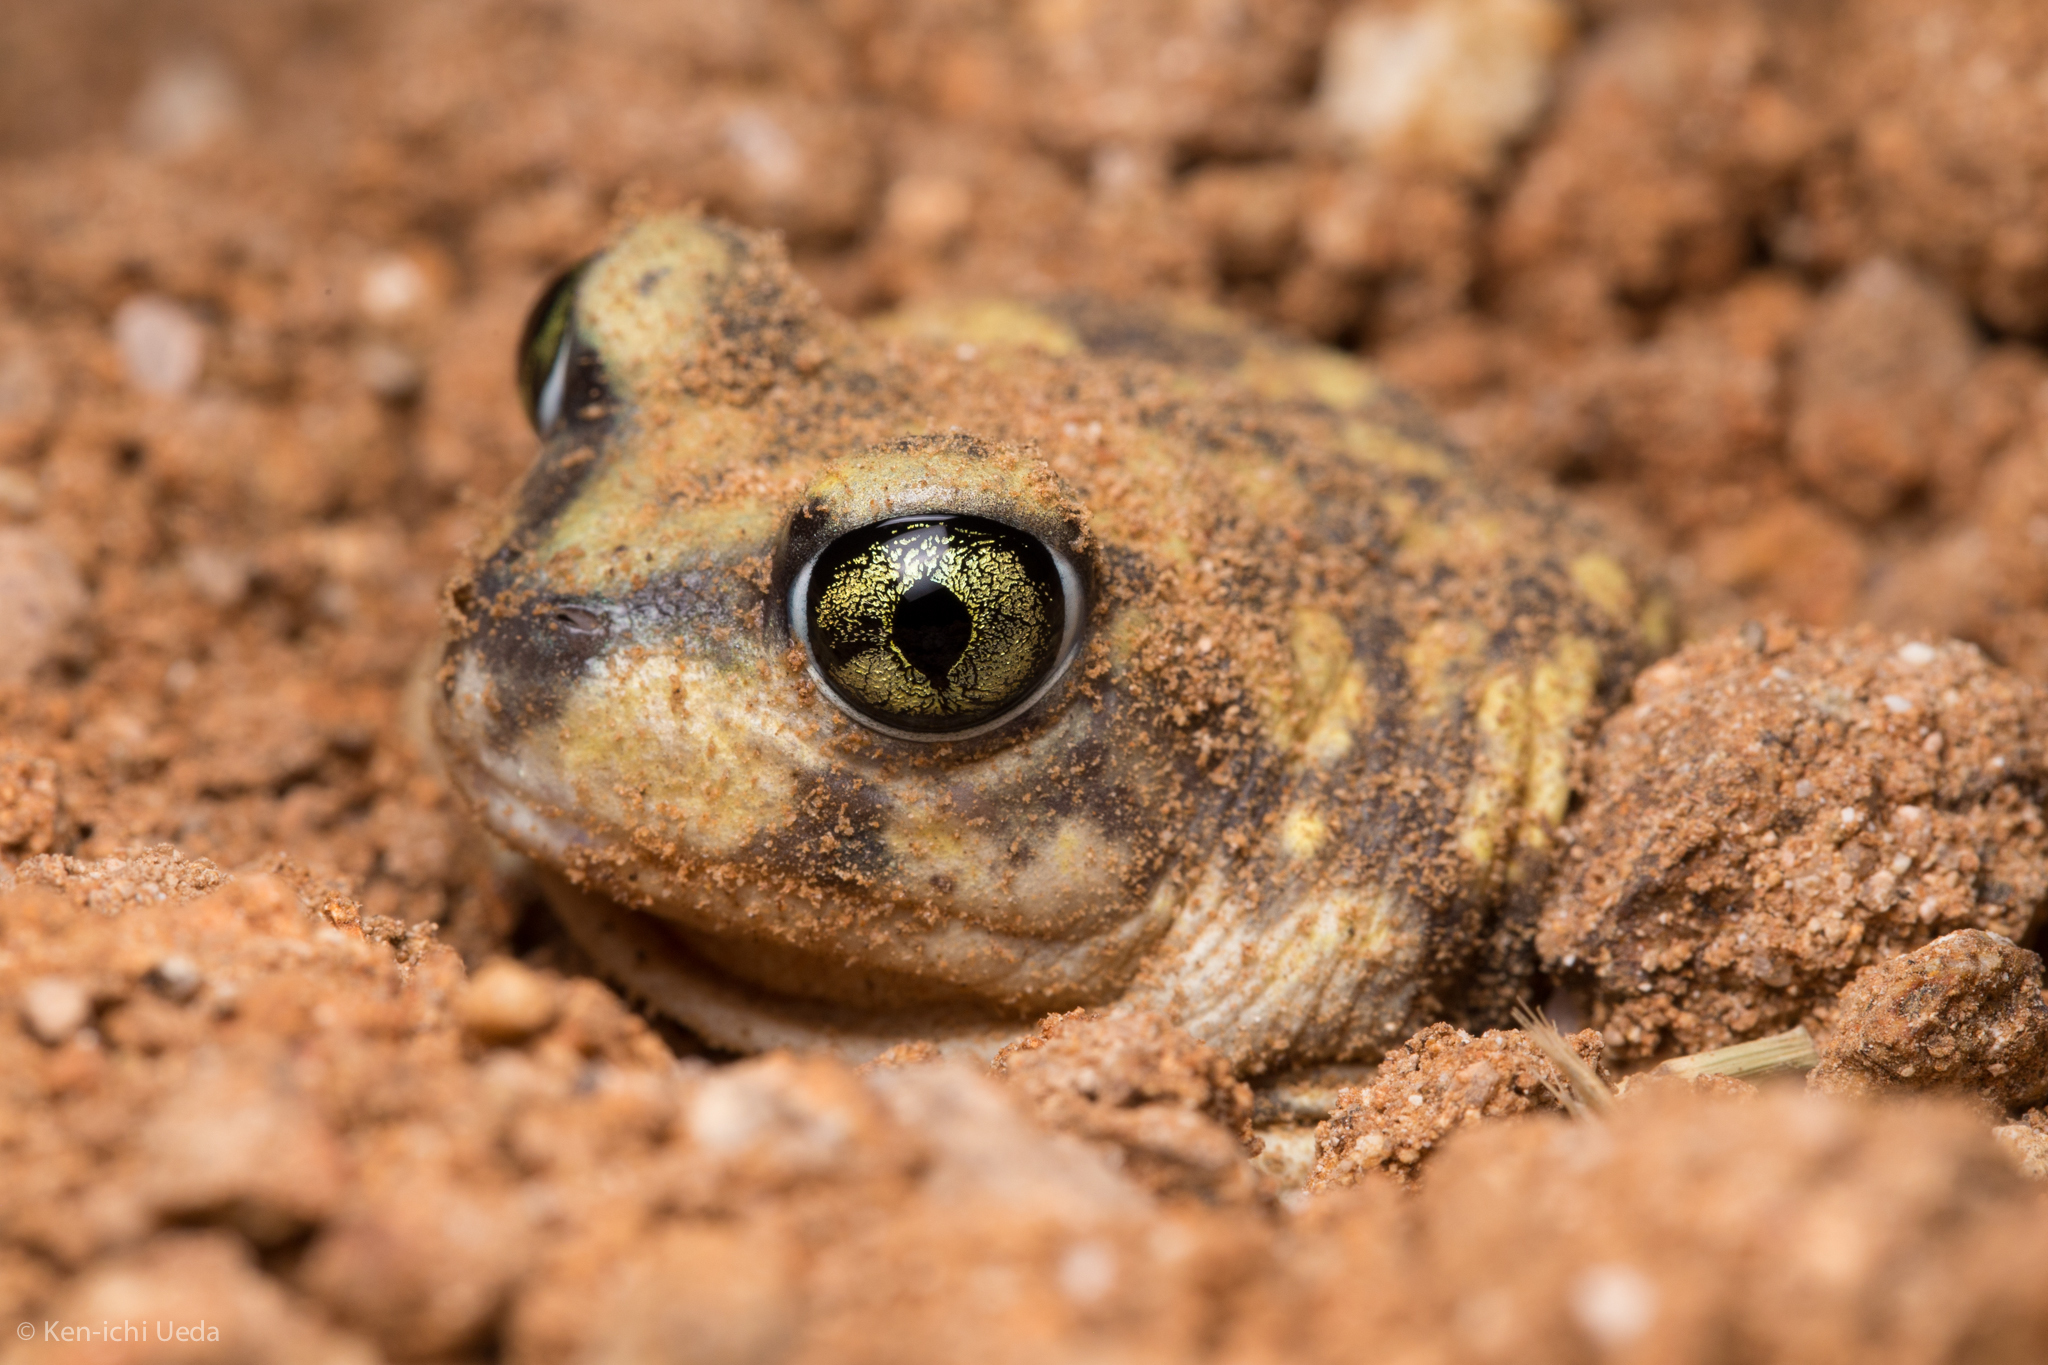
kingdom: Animalia
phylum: Chordata
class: Amphibia
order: Anura
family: Scaphiopodidae
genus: Scaphiopus
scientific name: Scaphiopus couchii
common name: Couch's spadefoot toad
